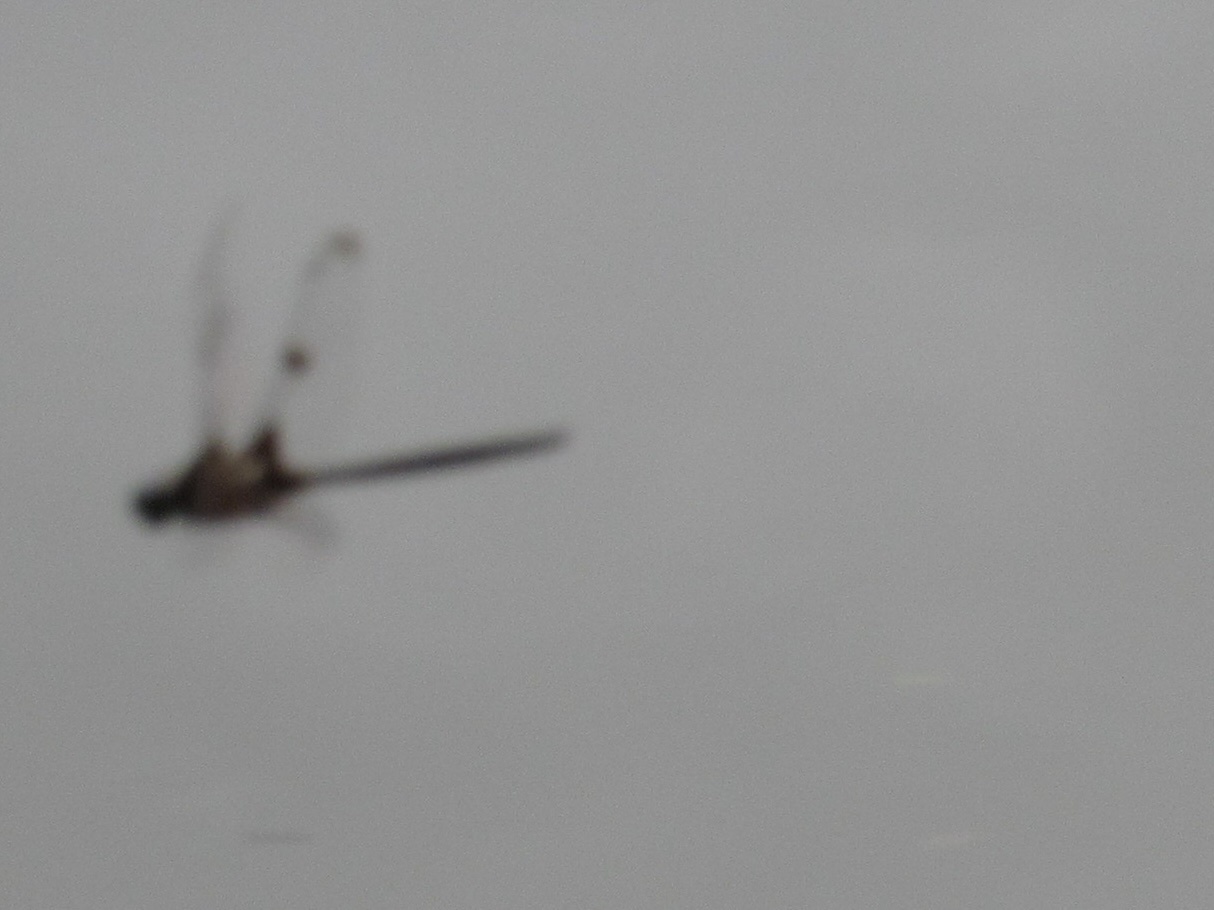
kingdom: Animalia
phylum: Arthropoda
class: Insecta
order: Odonata
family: Corduliidae
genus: Epitheca
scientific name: Epitheca princeps
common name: Prince baskettail
